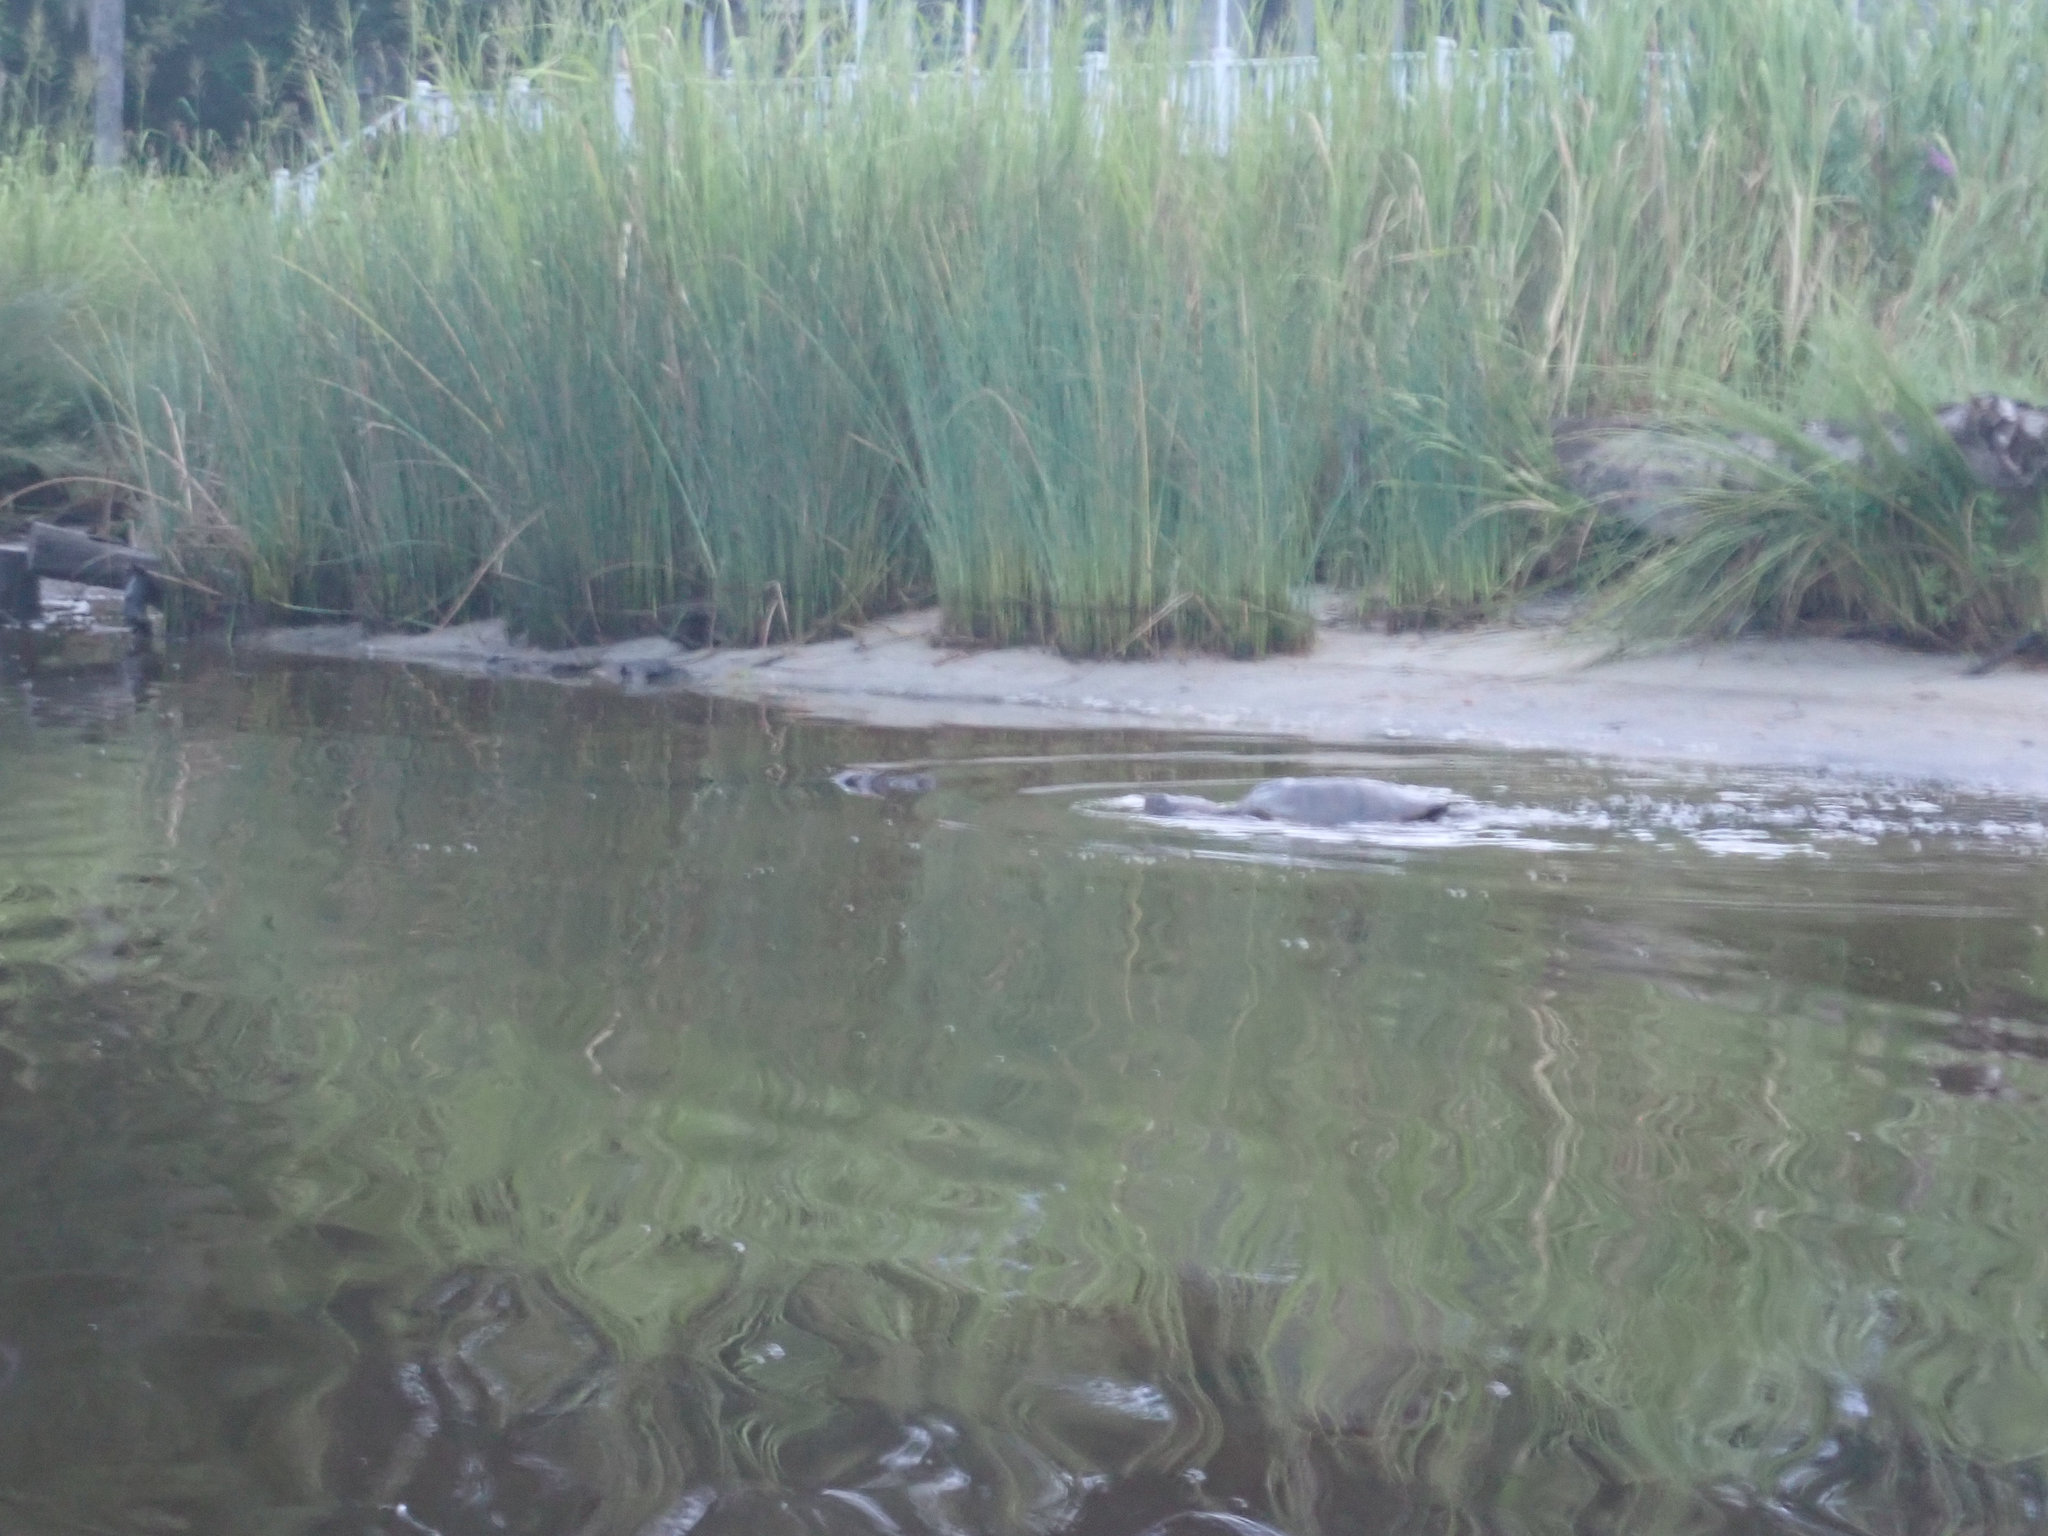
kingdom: Animalia
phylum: Chordata
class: Testudines
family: Chelydridae
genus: Chelydra
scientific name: Chelydra serpentina
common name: Common snapping turtle
